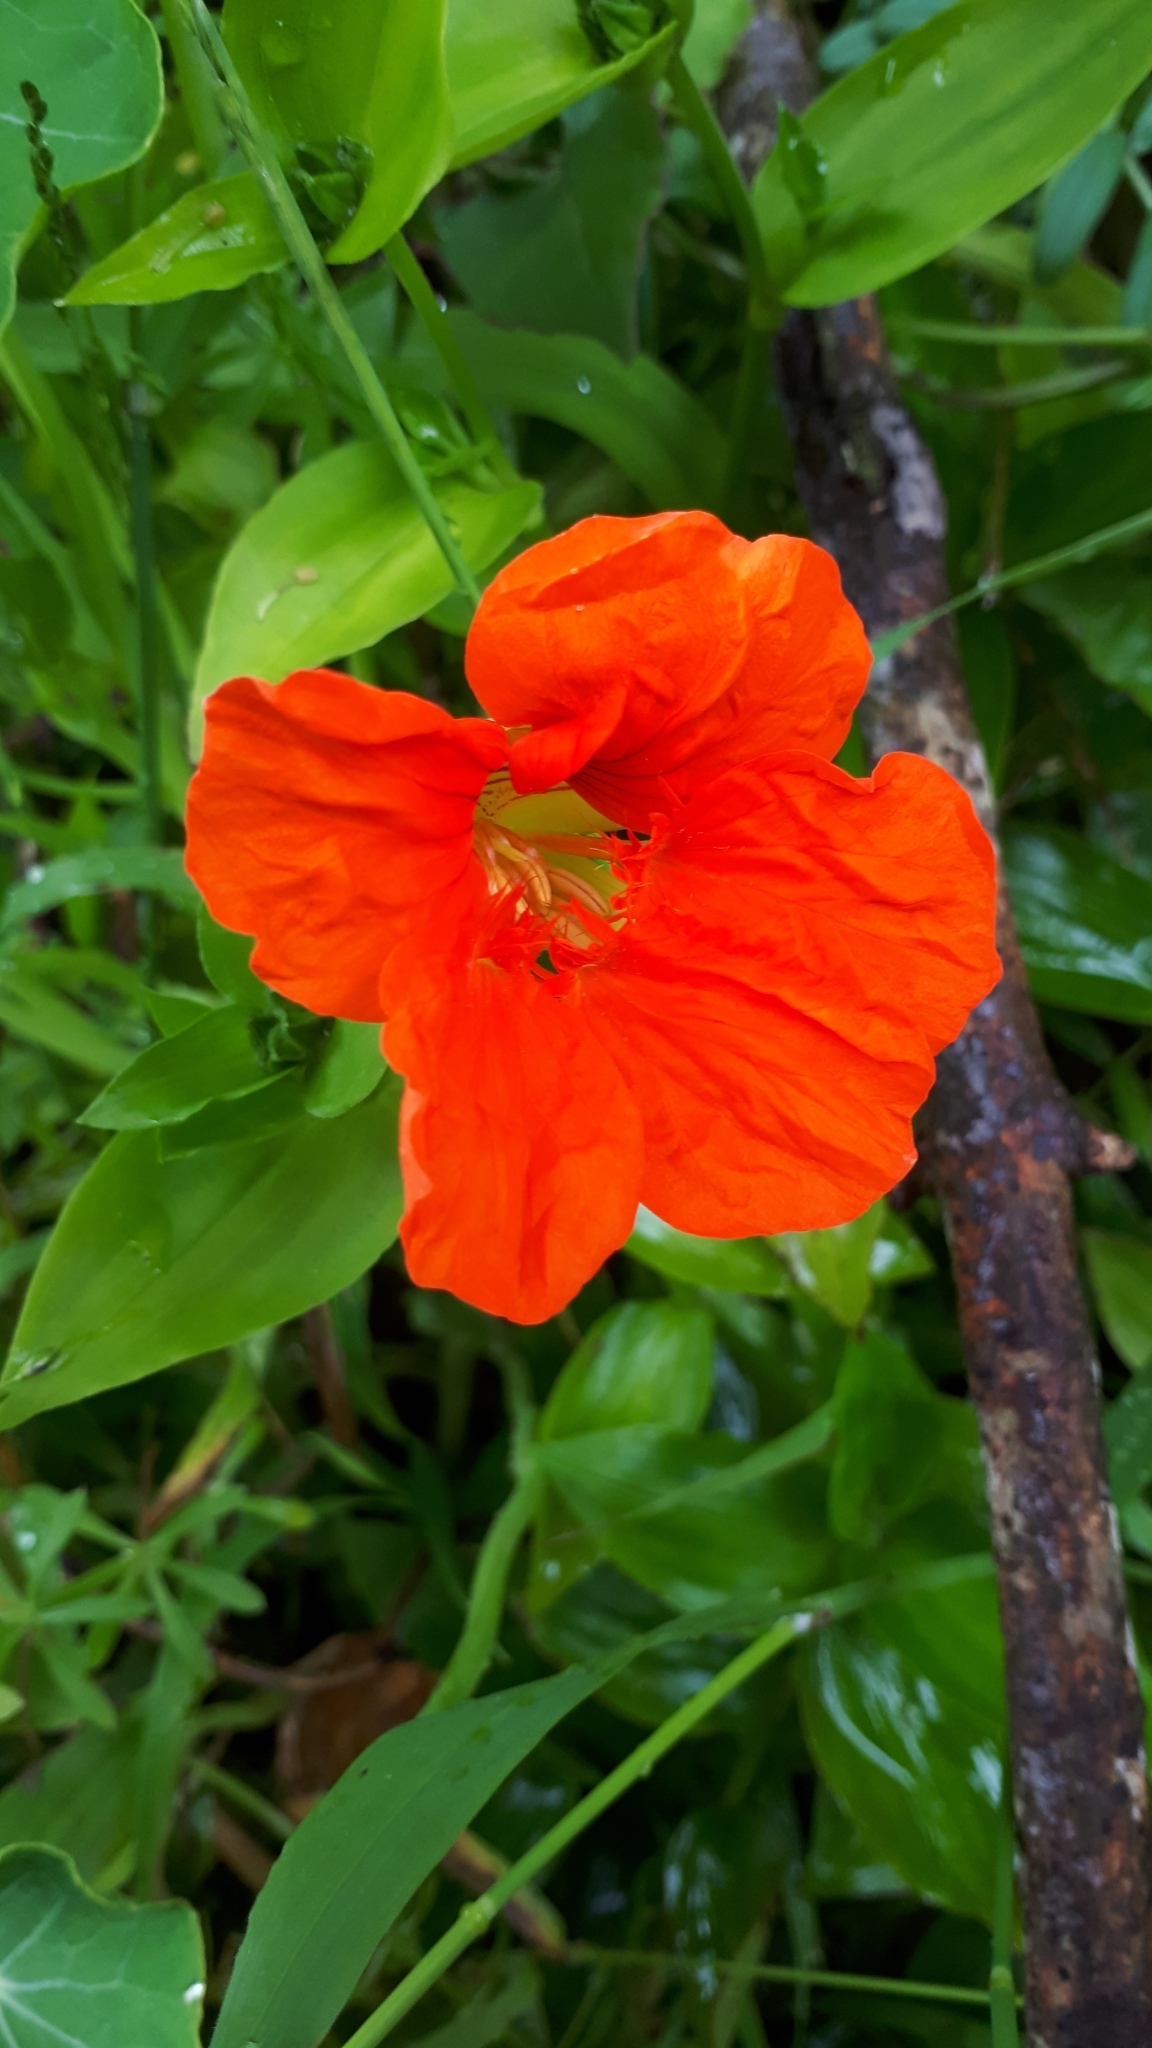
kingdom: Plantae
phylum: Tracheophyta
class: Magnoliopsida
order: Brassicales
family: Tropaeolaceae
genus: Tropaeolum
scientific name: Tropaeolum majus
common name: Nasturtium
